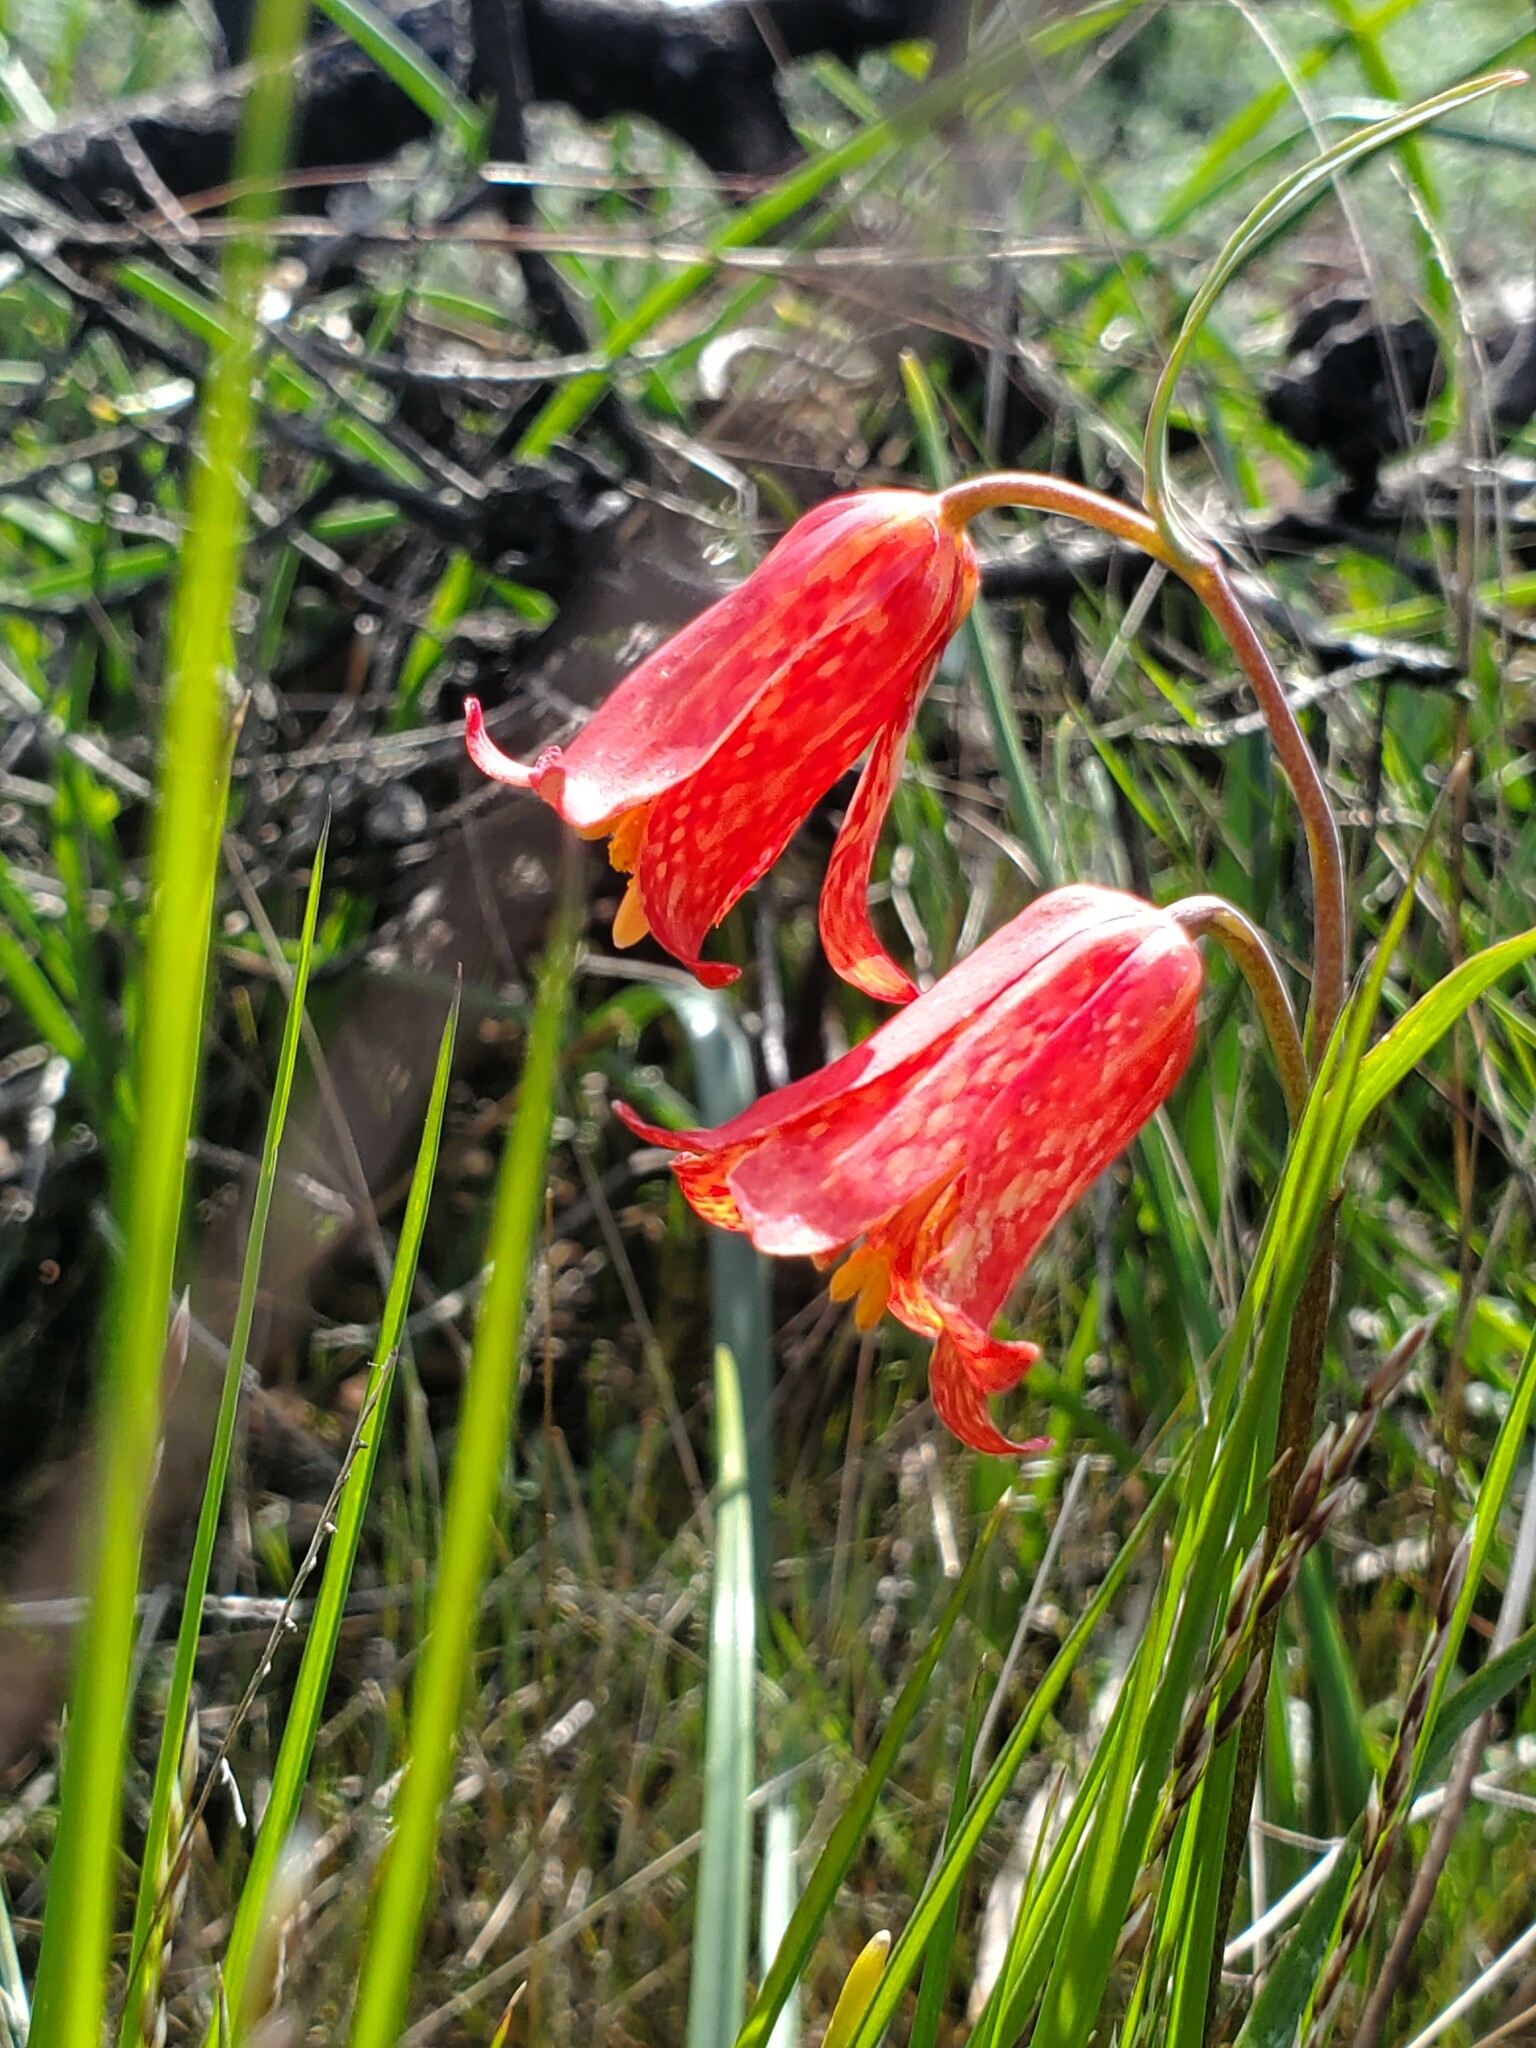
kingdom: Plantae
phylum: Tracheophyta
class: Liliopsida
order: Liliales
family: Liliaceae
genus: Fritillaria
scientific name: Fritillaria recurva
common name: Scarlet fritillary
